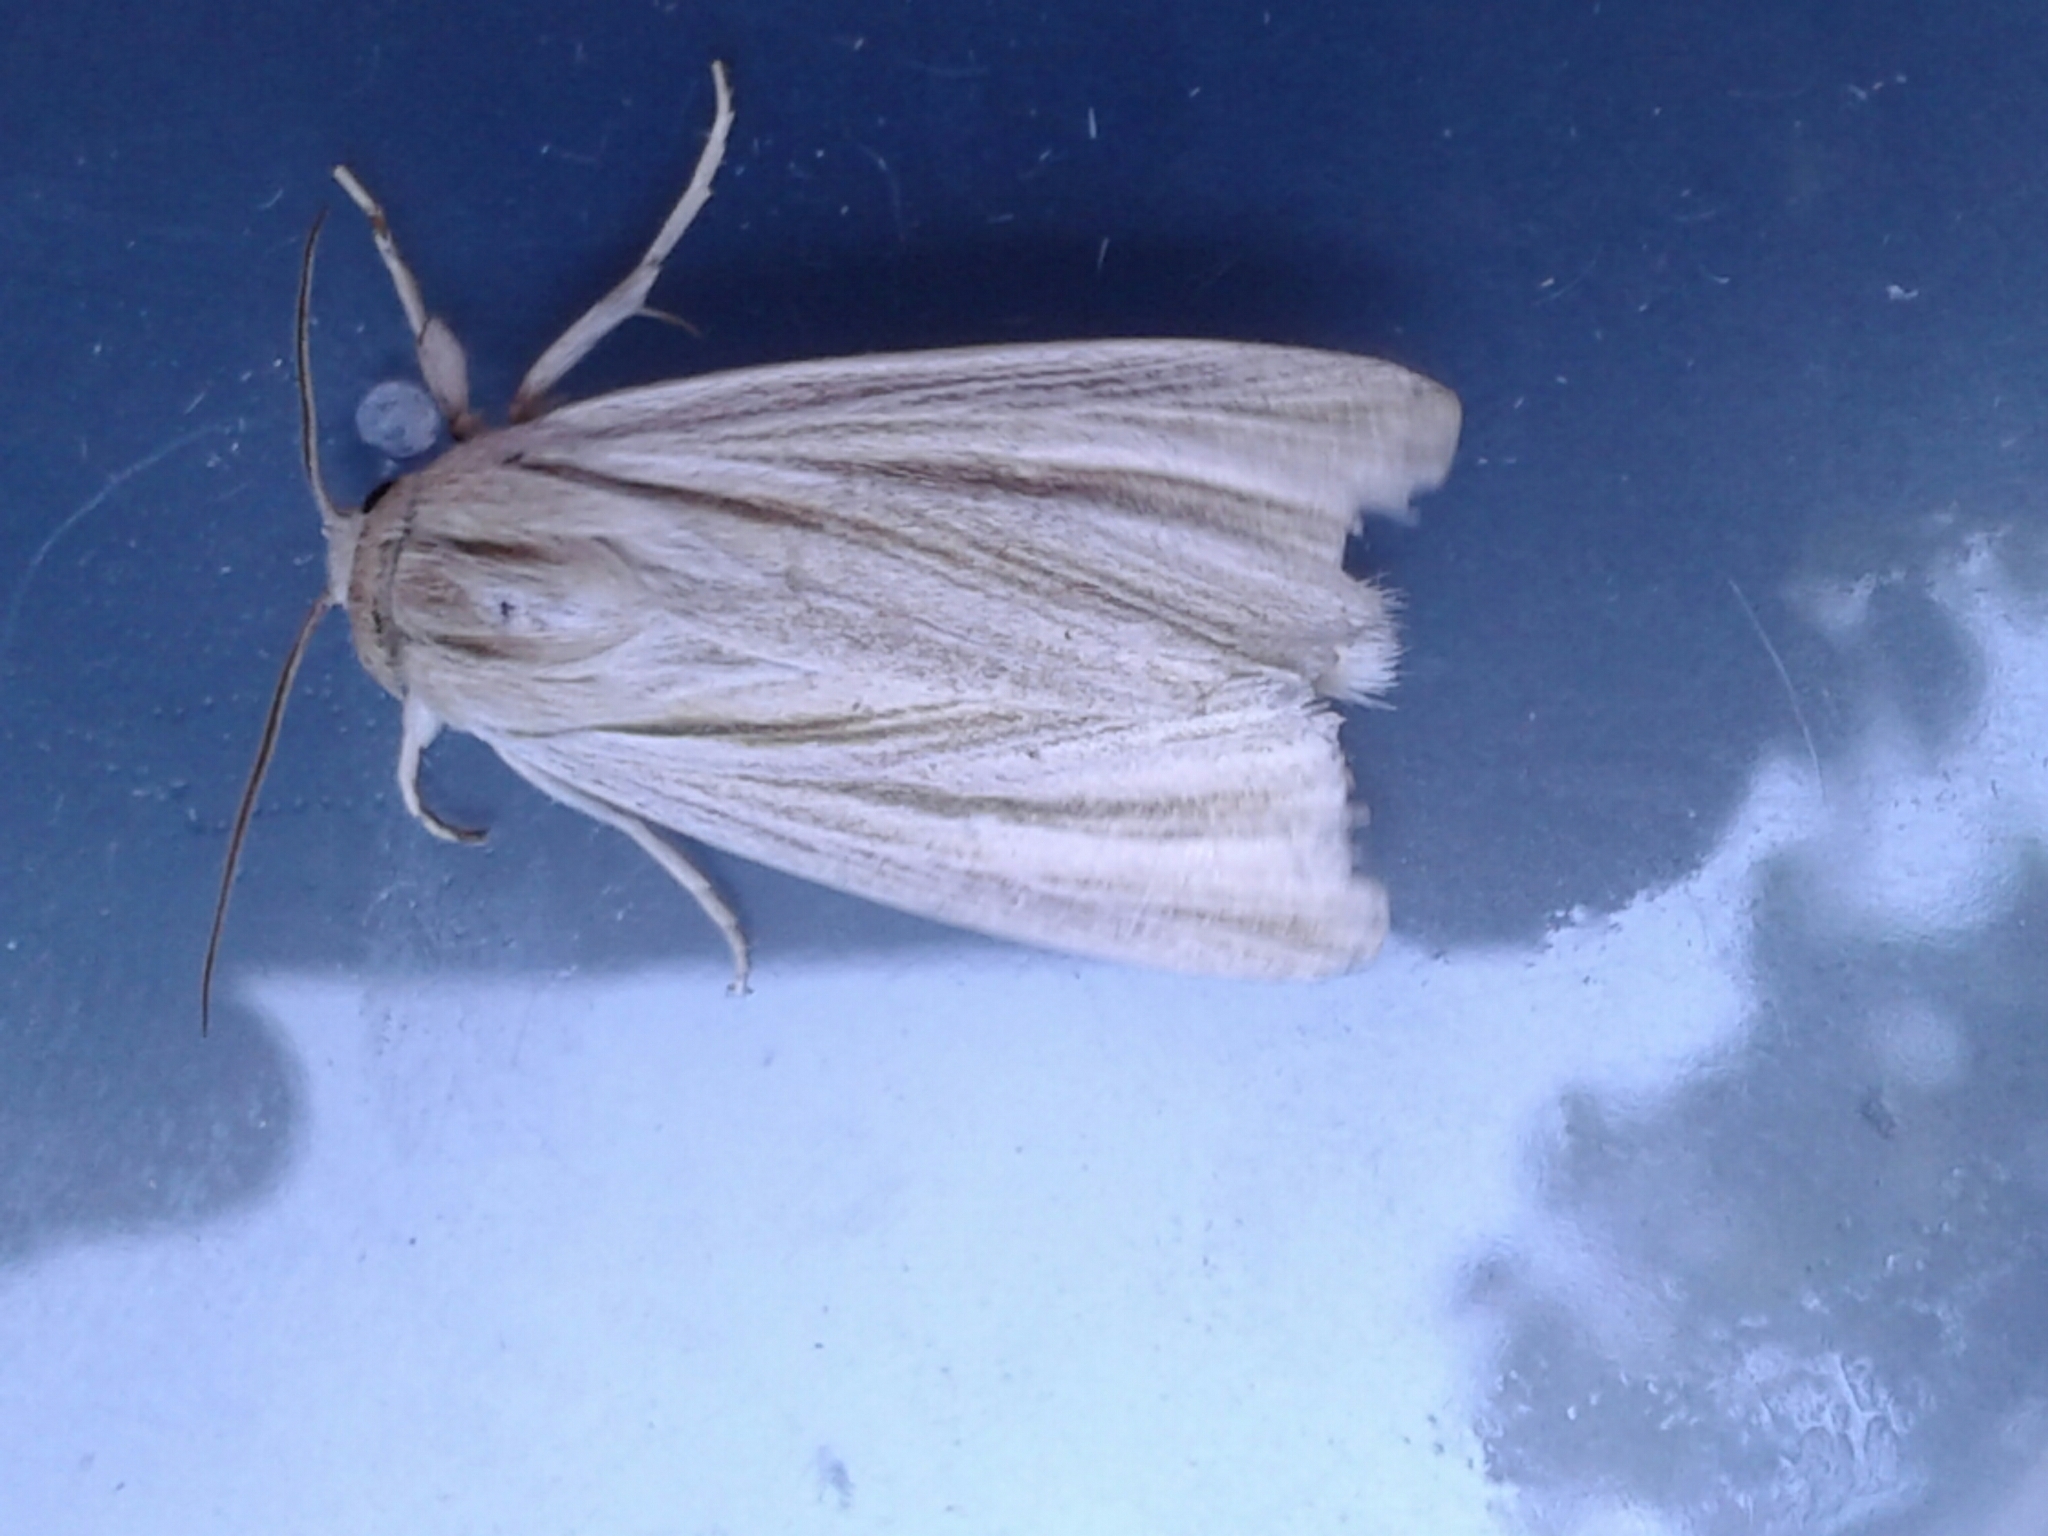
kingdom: Animalia
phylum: Arthropoda
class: Insecta
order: Lepidoptera
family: Noctuidae
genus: Acronicta
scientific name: Acronicta insularis
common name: Henry's marsh moth
